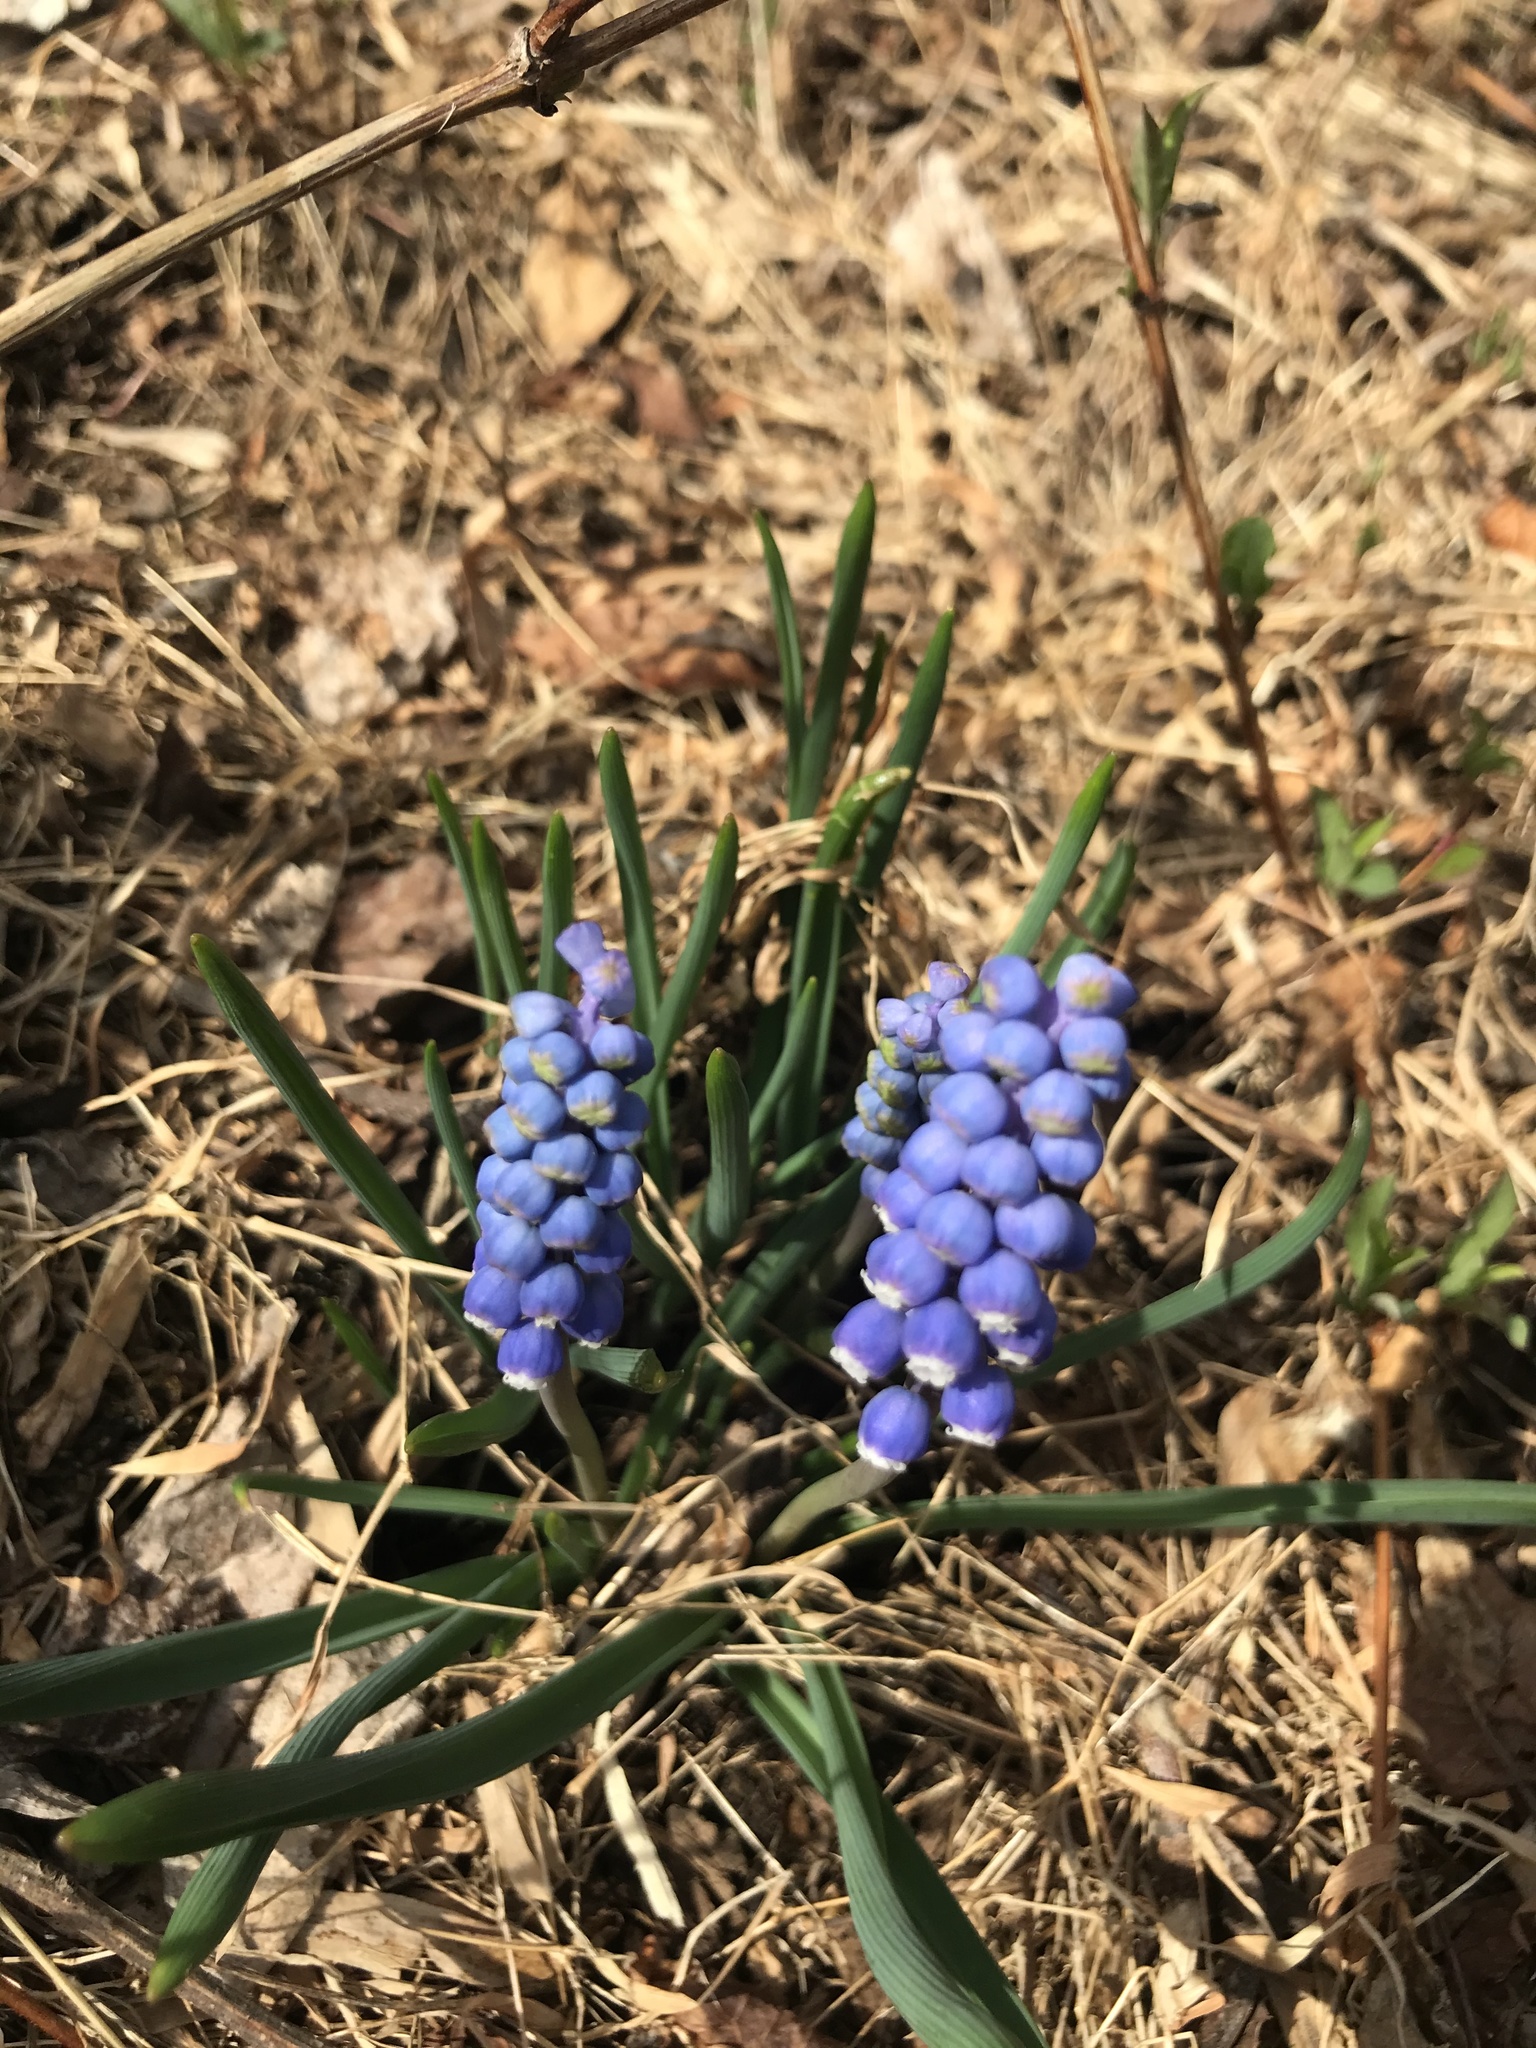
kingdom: Plantae
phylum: Tracheophyta
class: Liliopsida
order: Asparagales
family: Asparagaceae
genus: Muscari
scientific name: Muscari botryoides
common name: Compact grape-hyacinth
